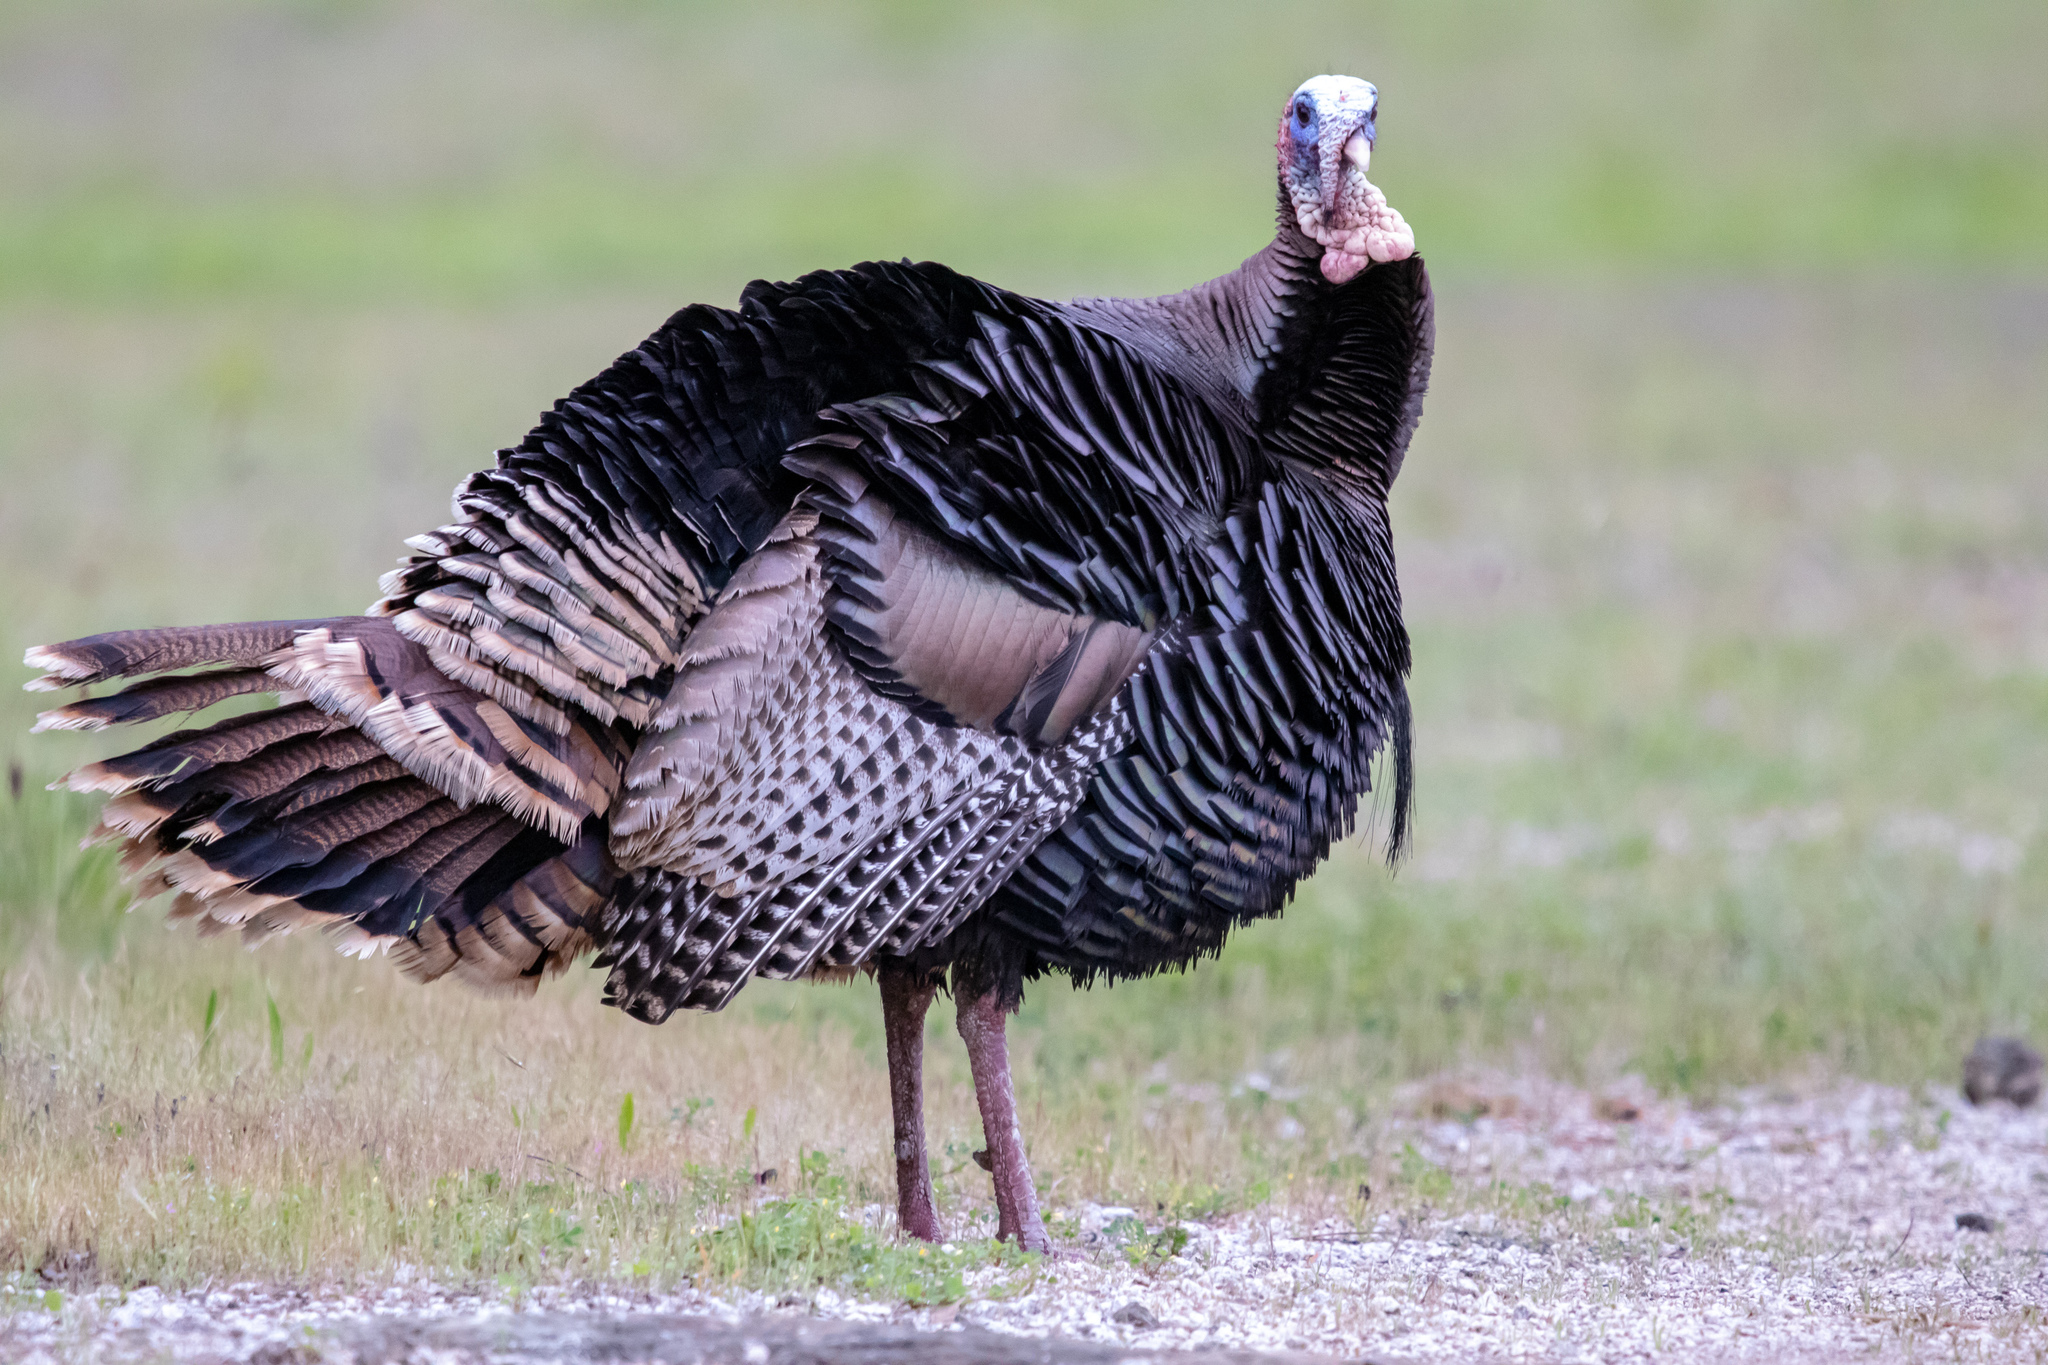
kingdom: Animalia
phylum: Chordata
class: Aves
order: Galliformes
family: Phasianidae
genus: Meleagris
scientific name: Meleagris gallopavo
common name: Wild turkey
